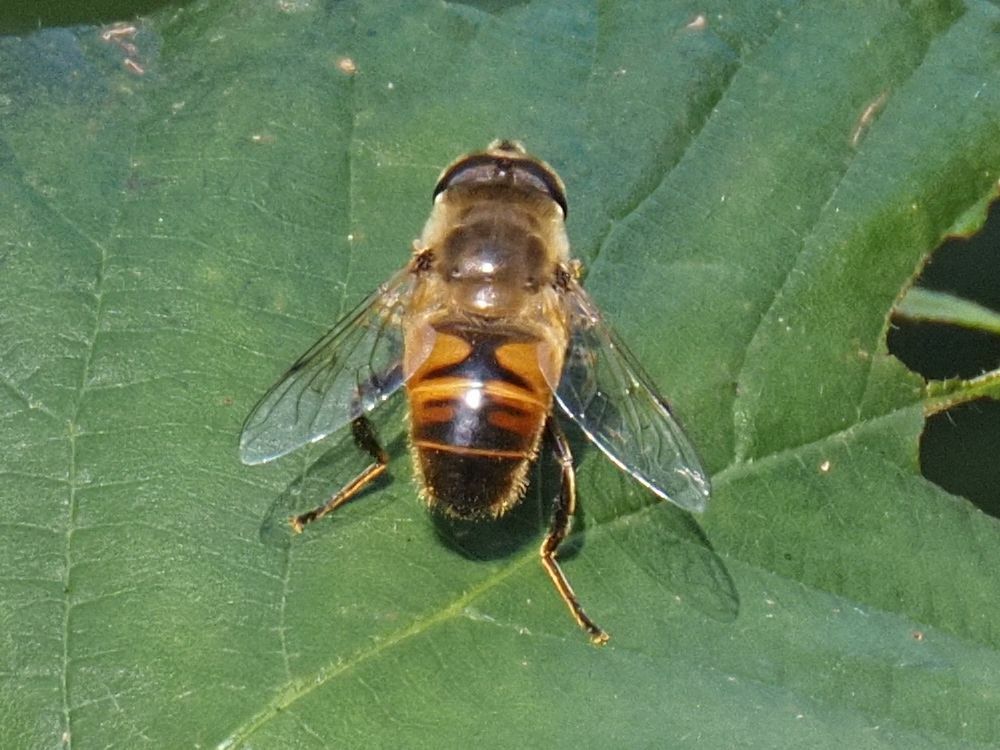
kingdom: Animalia
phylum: Arthropoda
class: Insecta
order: Diptera
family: Syrphidae
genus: Eristalis
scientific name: Eristalis tenax
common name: Drone fly
